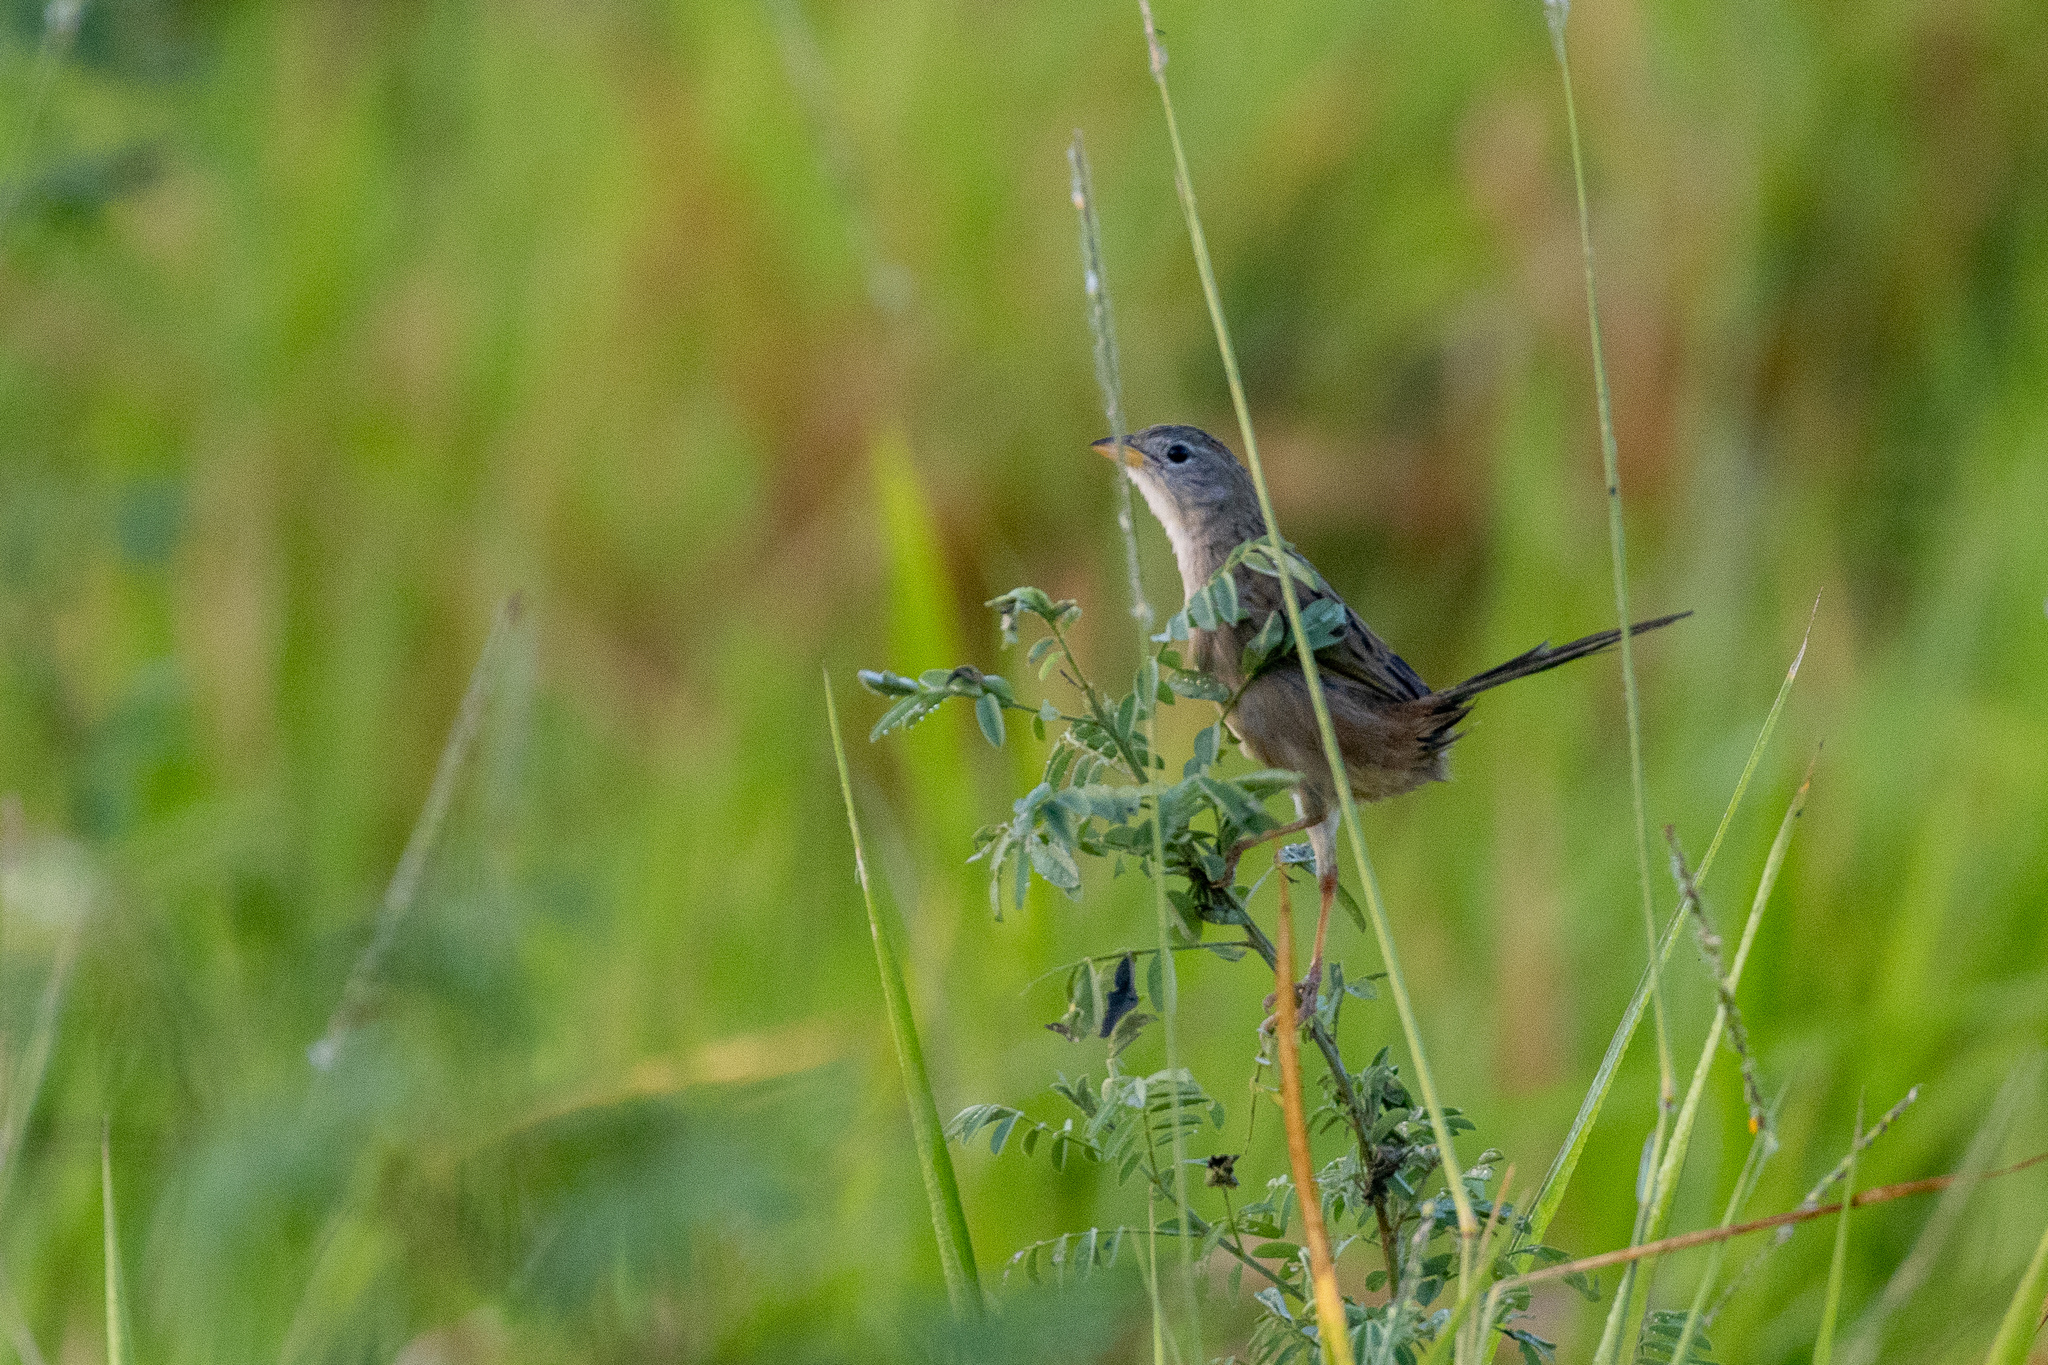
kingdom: Animalia
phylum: Chordata
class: Aves
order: Passeriformes
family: Thraupidae
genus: Emberizoides
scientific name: Emberizoides herbicola
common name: Wedge-tailed grass-finch
